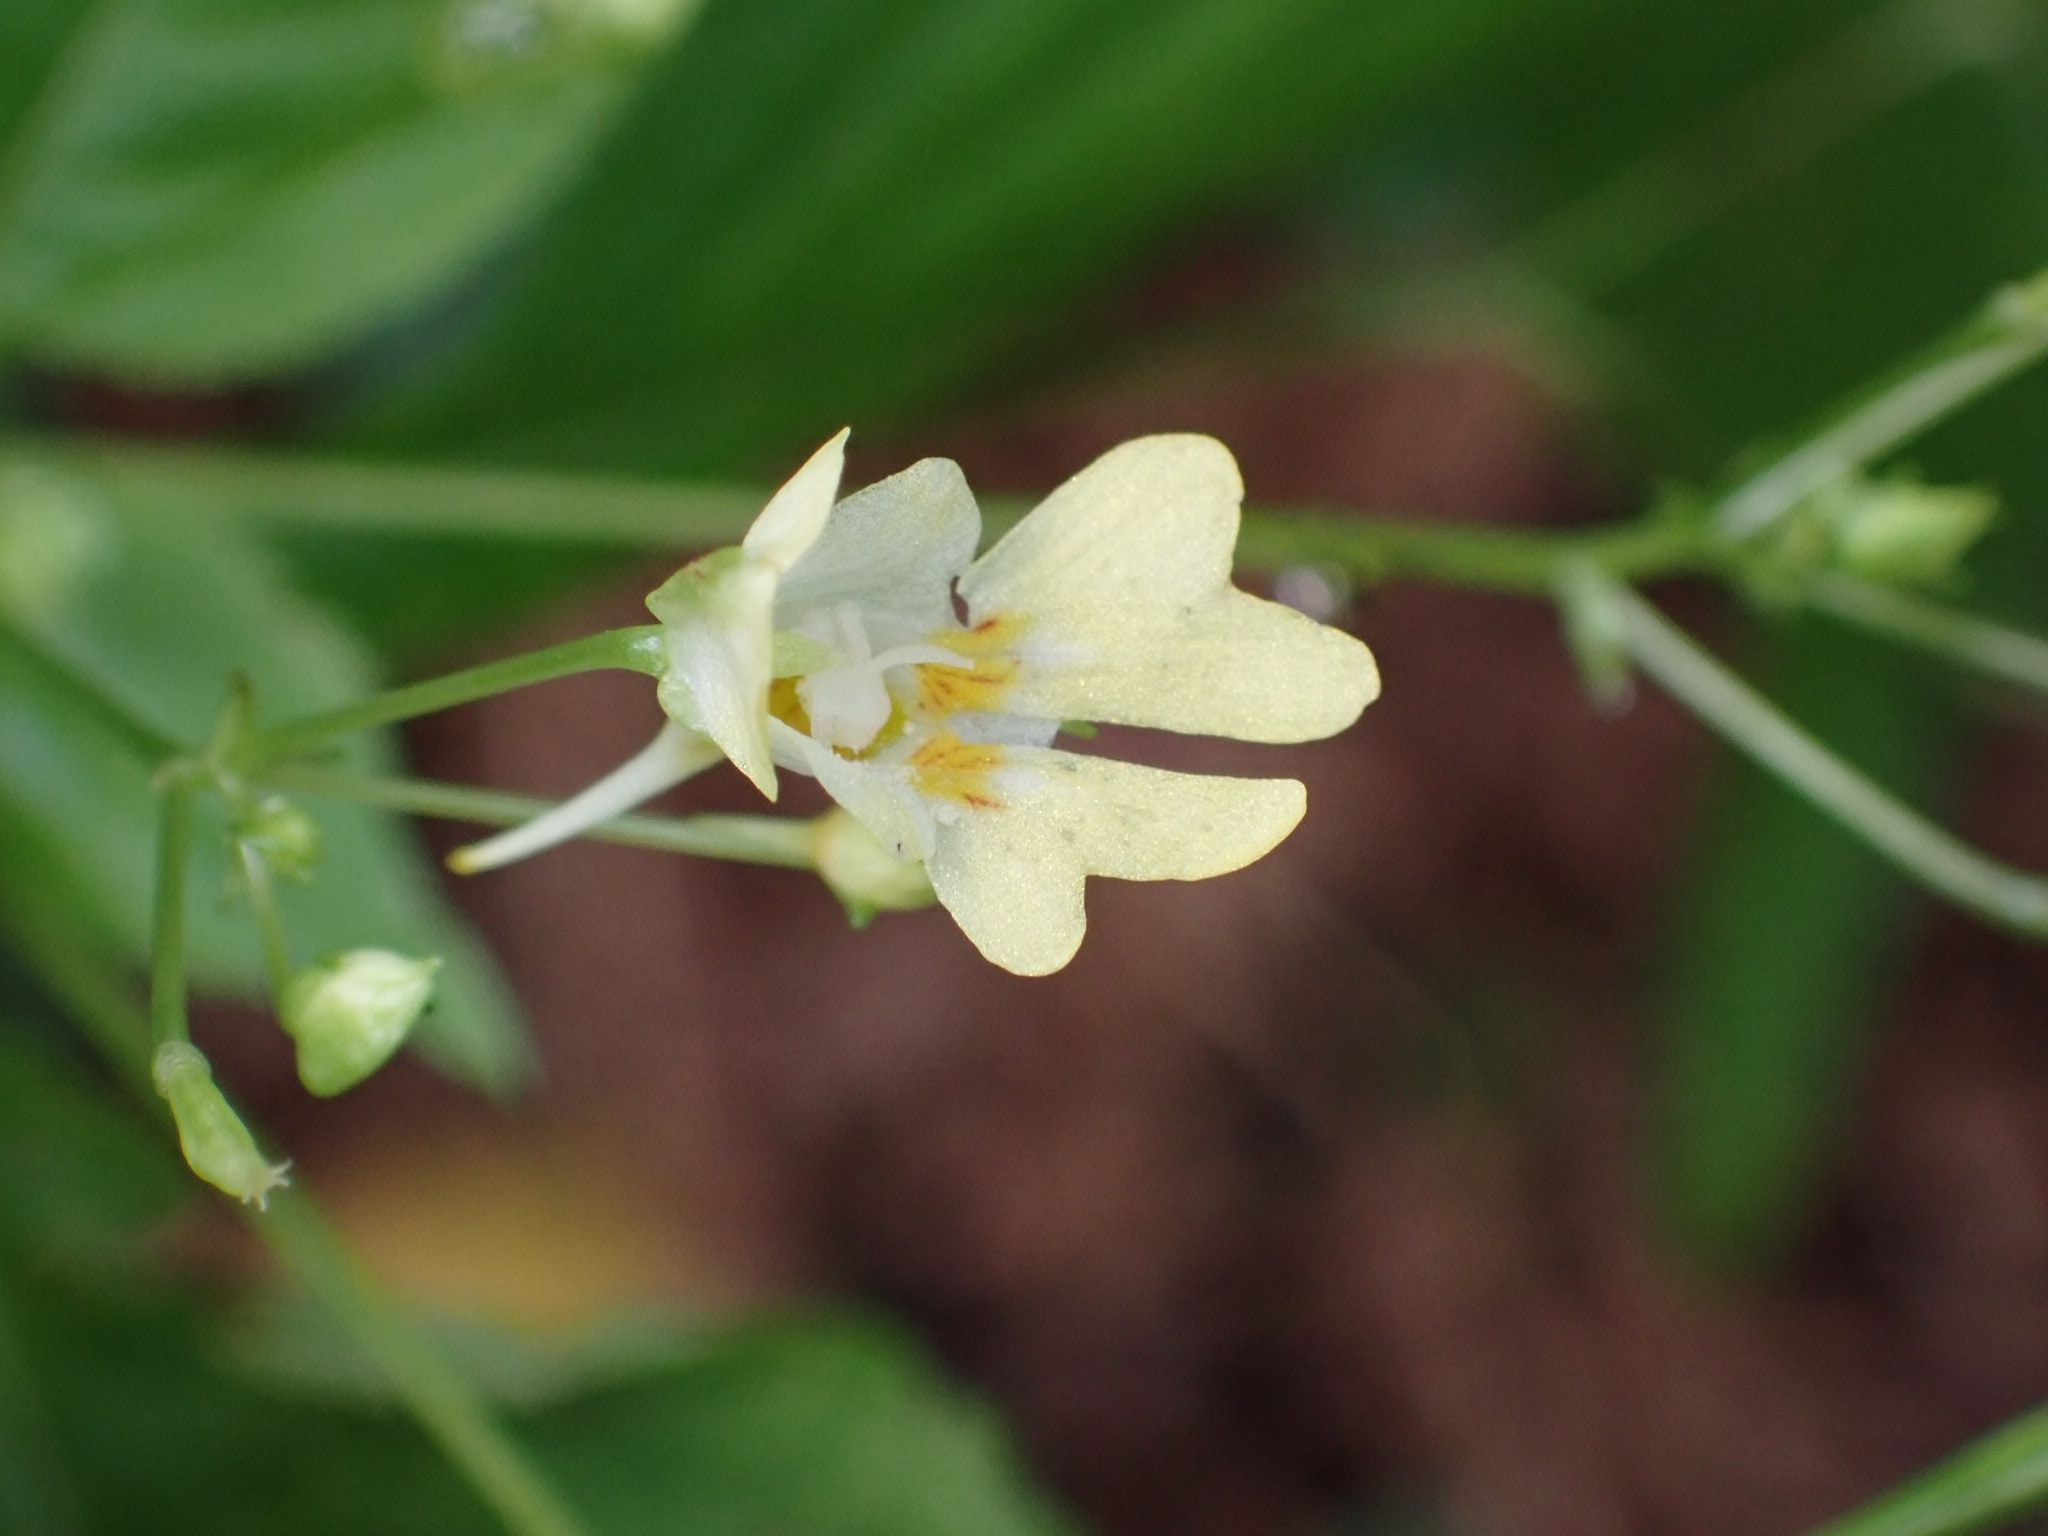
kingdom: Plantae
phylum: Tracheophyta
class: Magnoliopsida
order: Ericales
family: Balsaminaceae
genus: Impatiens
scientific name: Impatiens parviflora
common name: Small balsam
